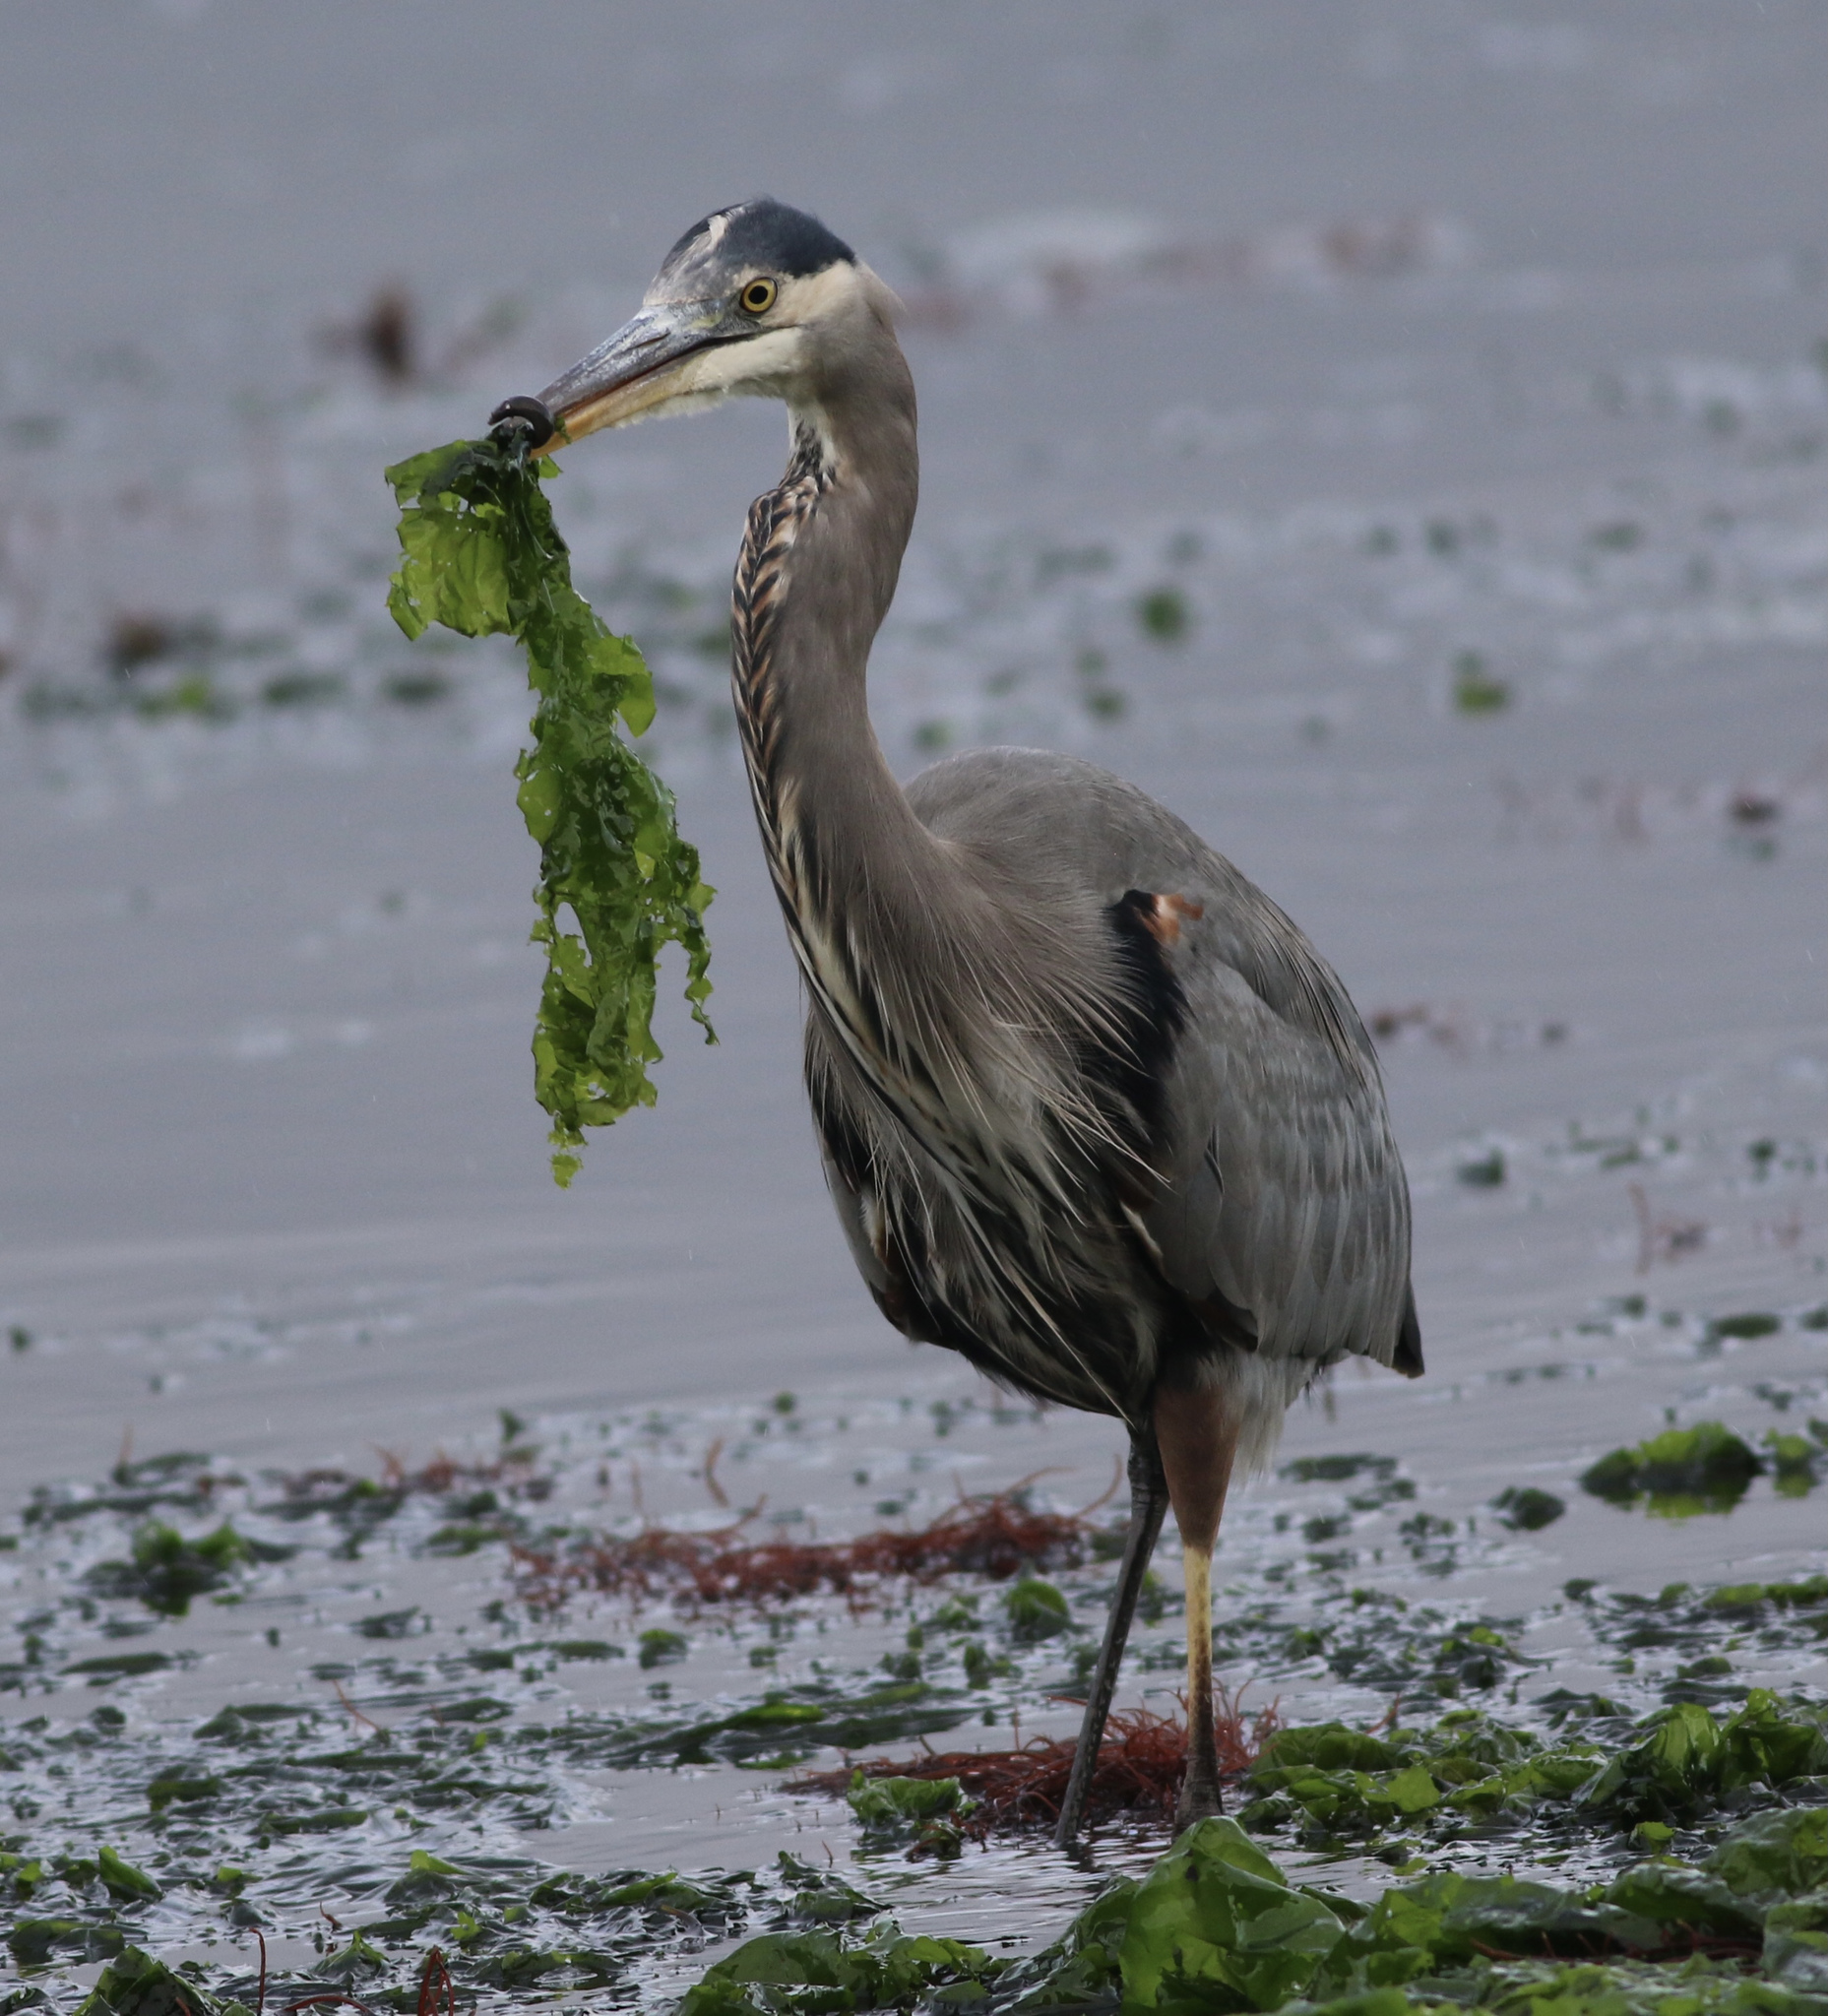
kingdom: Animalia
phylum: Chordata
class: Aves
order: Pelecaniformes
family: Ardeidae
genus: Ardea
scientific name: Ardea herodias
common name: Great blue heron
